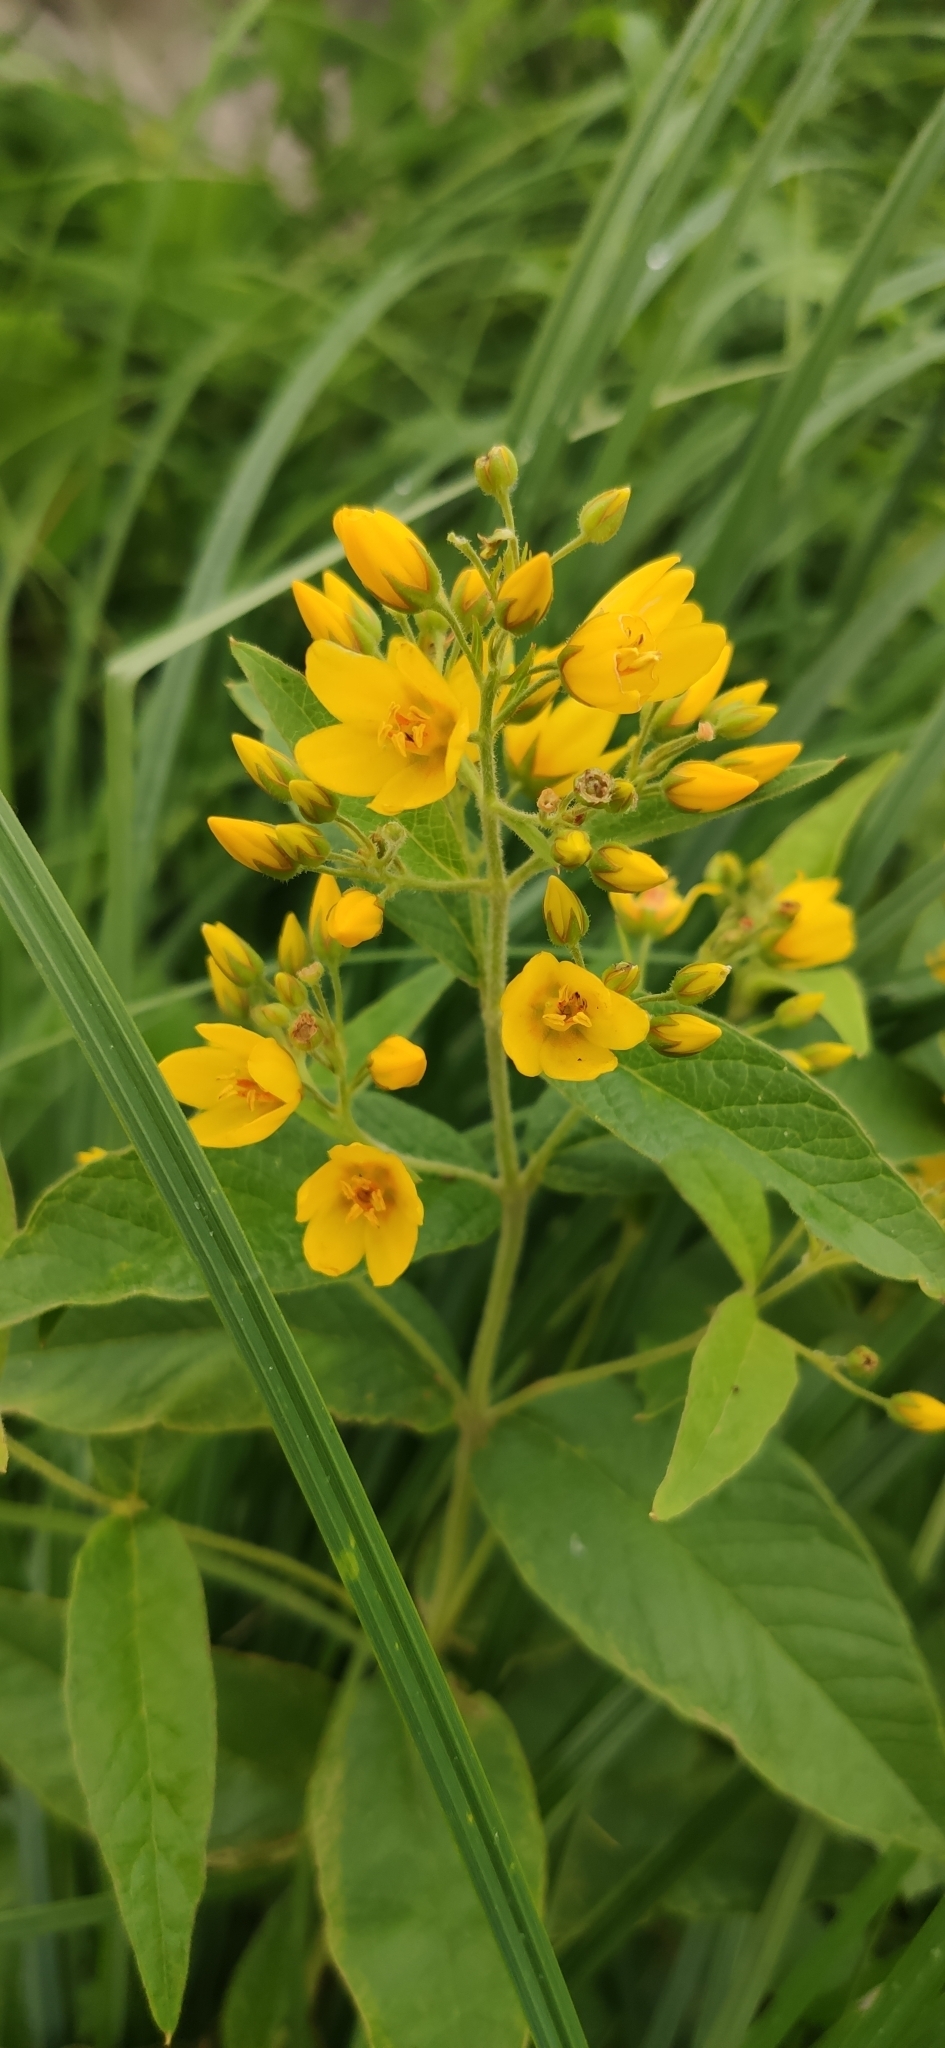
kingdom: Plantae
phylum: Tracheophyta
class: Magnoliopsida
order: Ericales
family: Primulaceae
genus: Lysimachia
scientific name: Lysimachia vulgaris
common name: Yellow loosestrife
